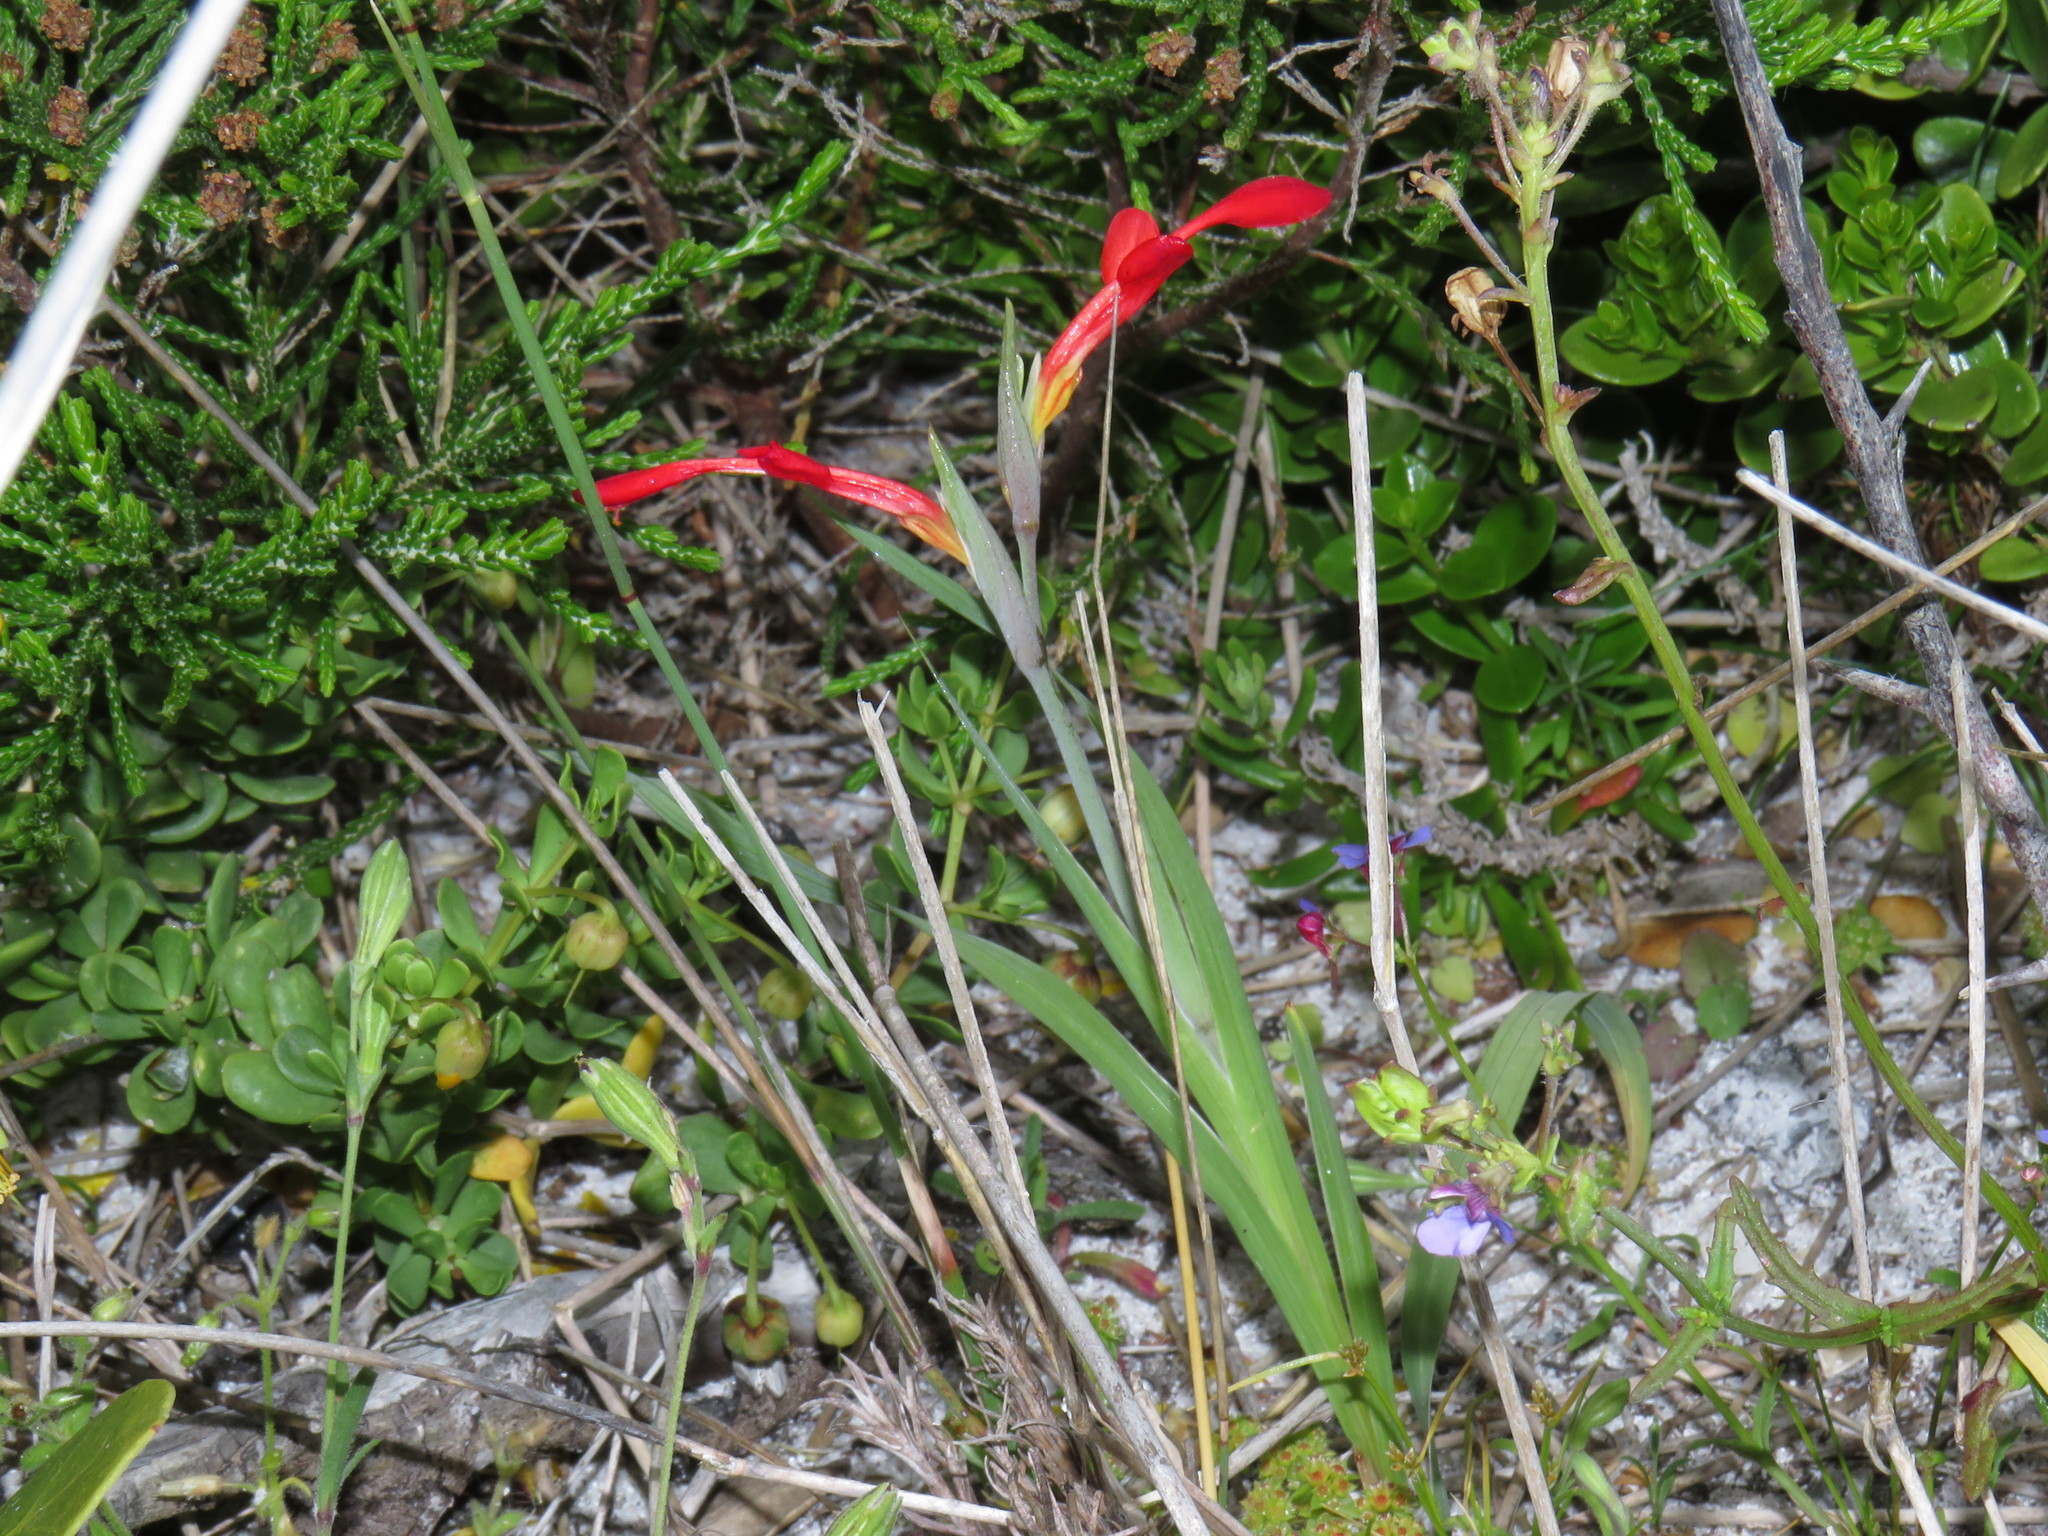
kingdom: Plantae
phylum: Tracheophyta
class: Liliopsida
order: Asparagales
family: Iridaceae
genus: Gladiolus
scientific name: Gladiolus cunonius
